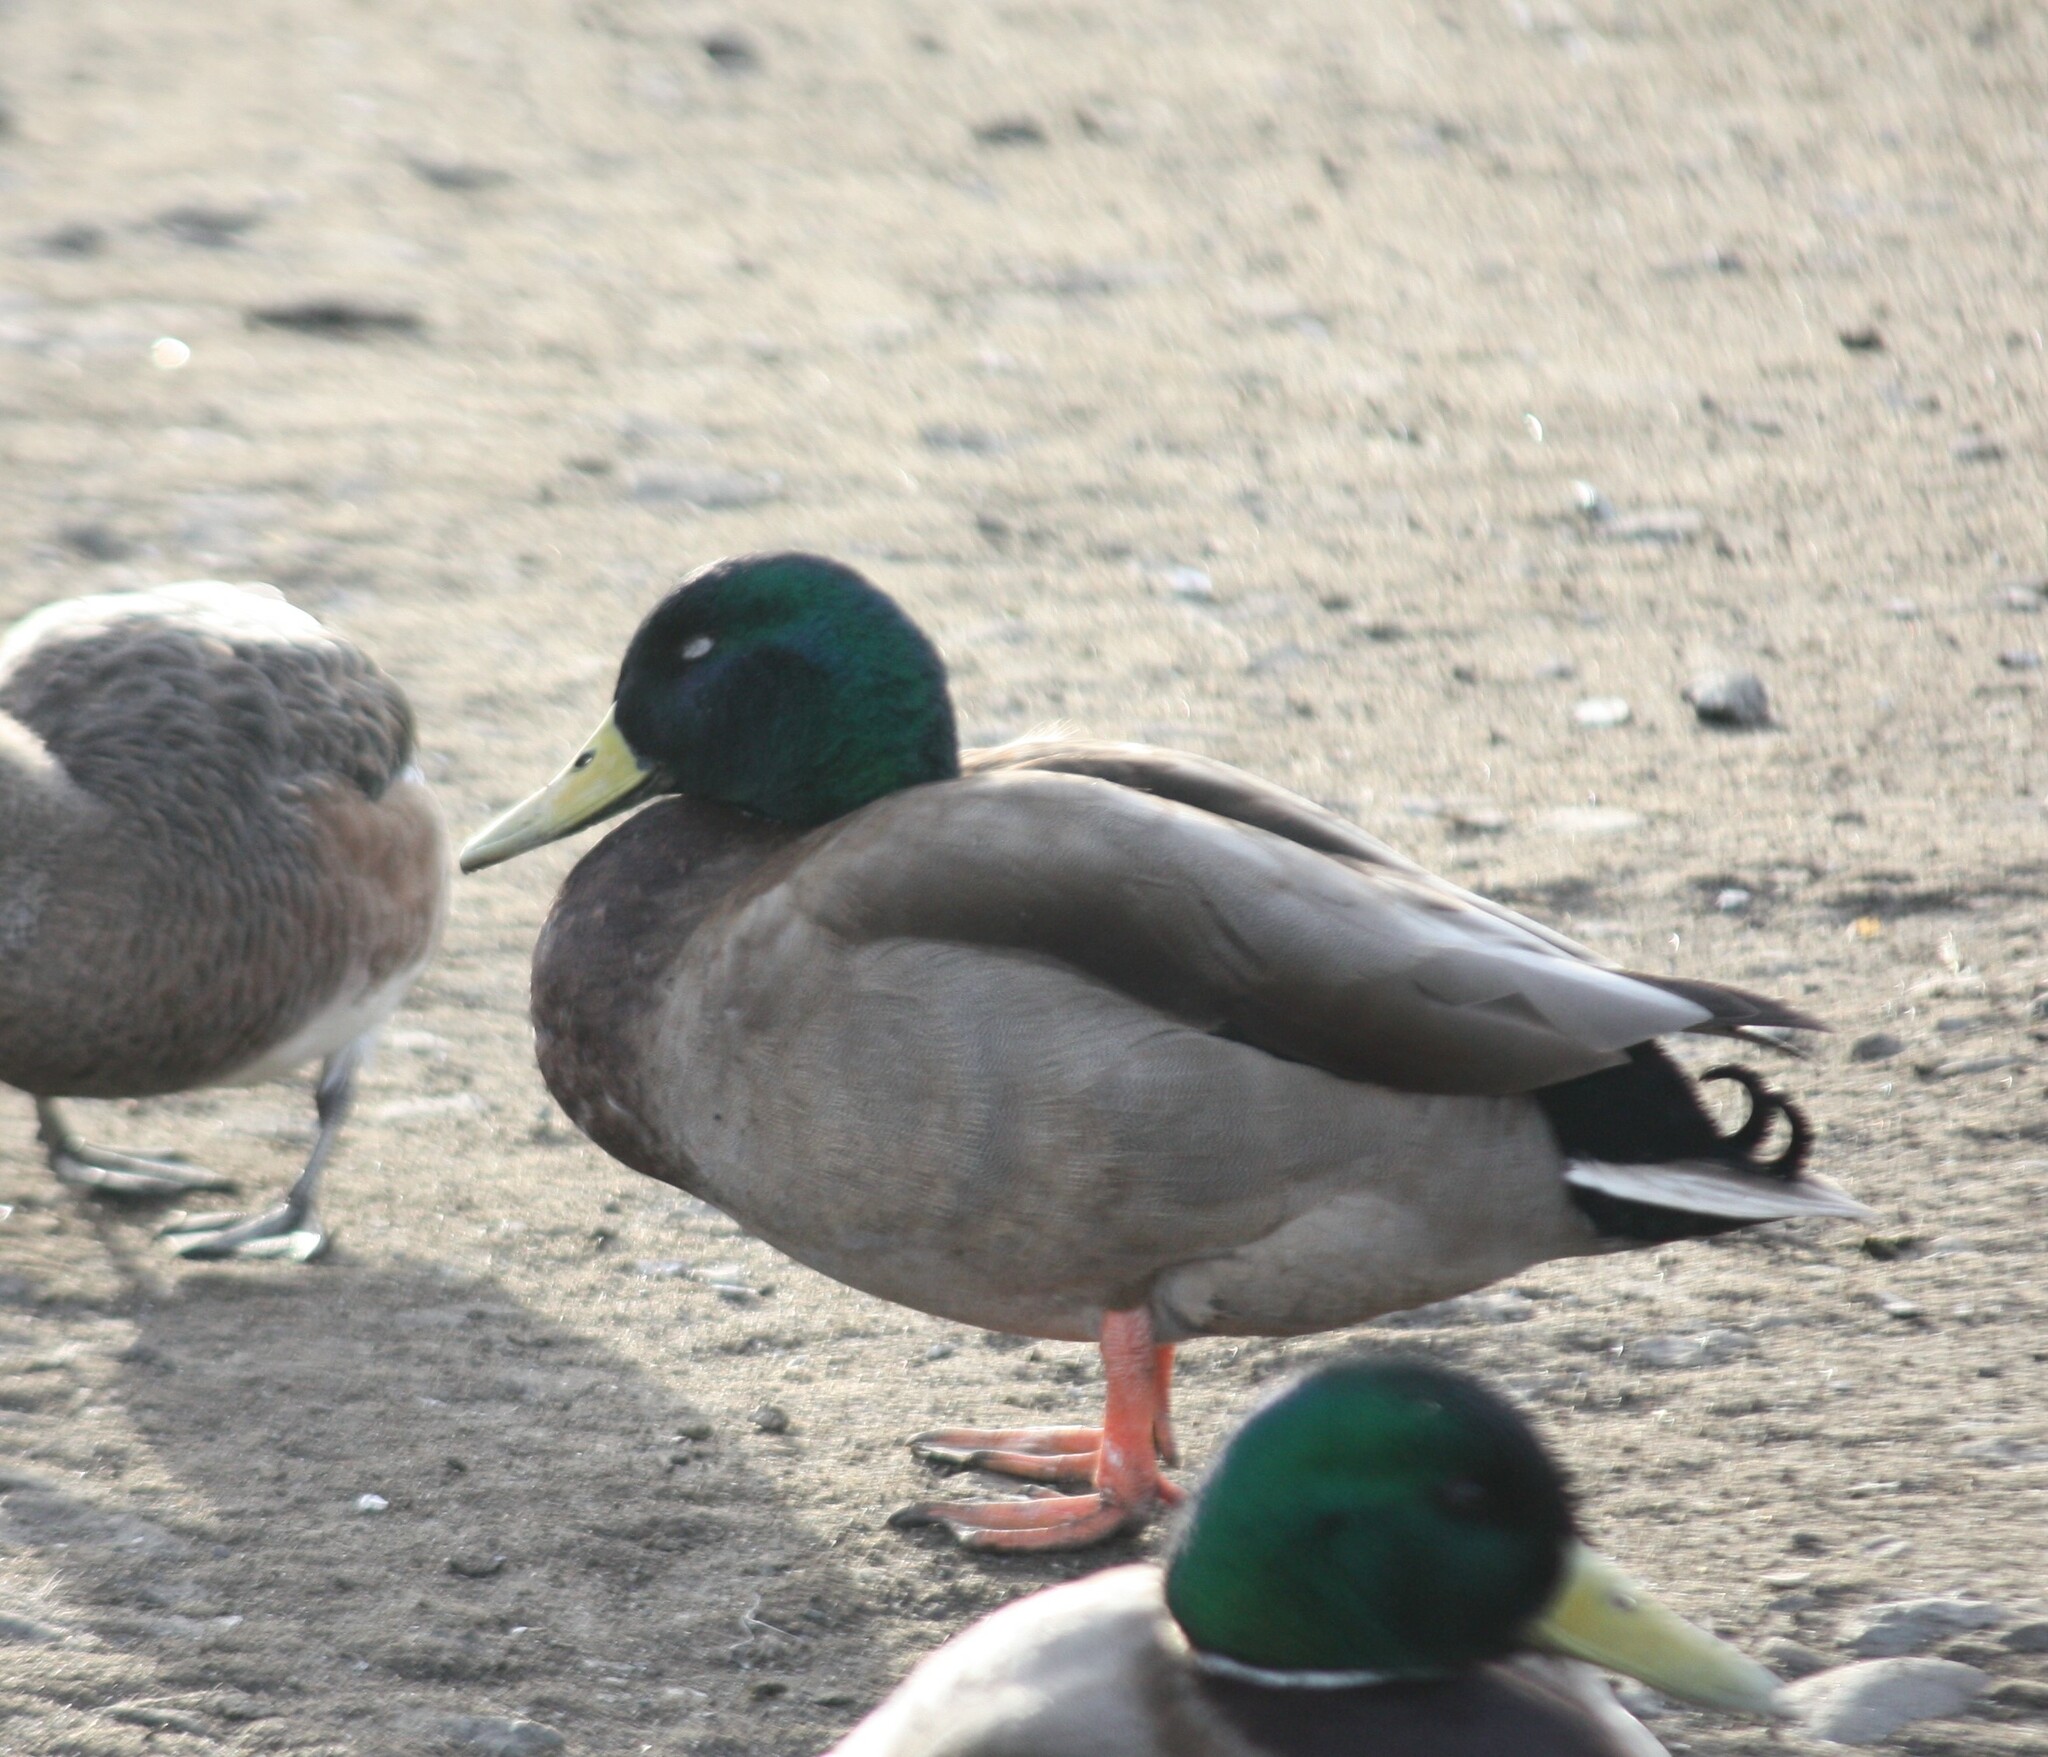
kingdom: Animalia
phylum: Chordata
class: Aves
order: Anseriformes
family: Anatidae
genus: Anas
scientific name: Anas platyrhynchos
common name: Mallard
